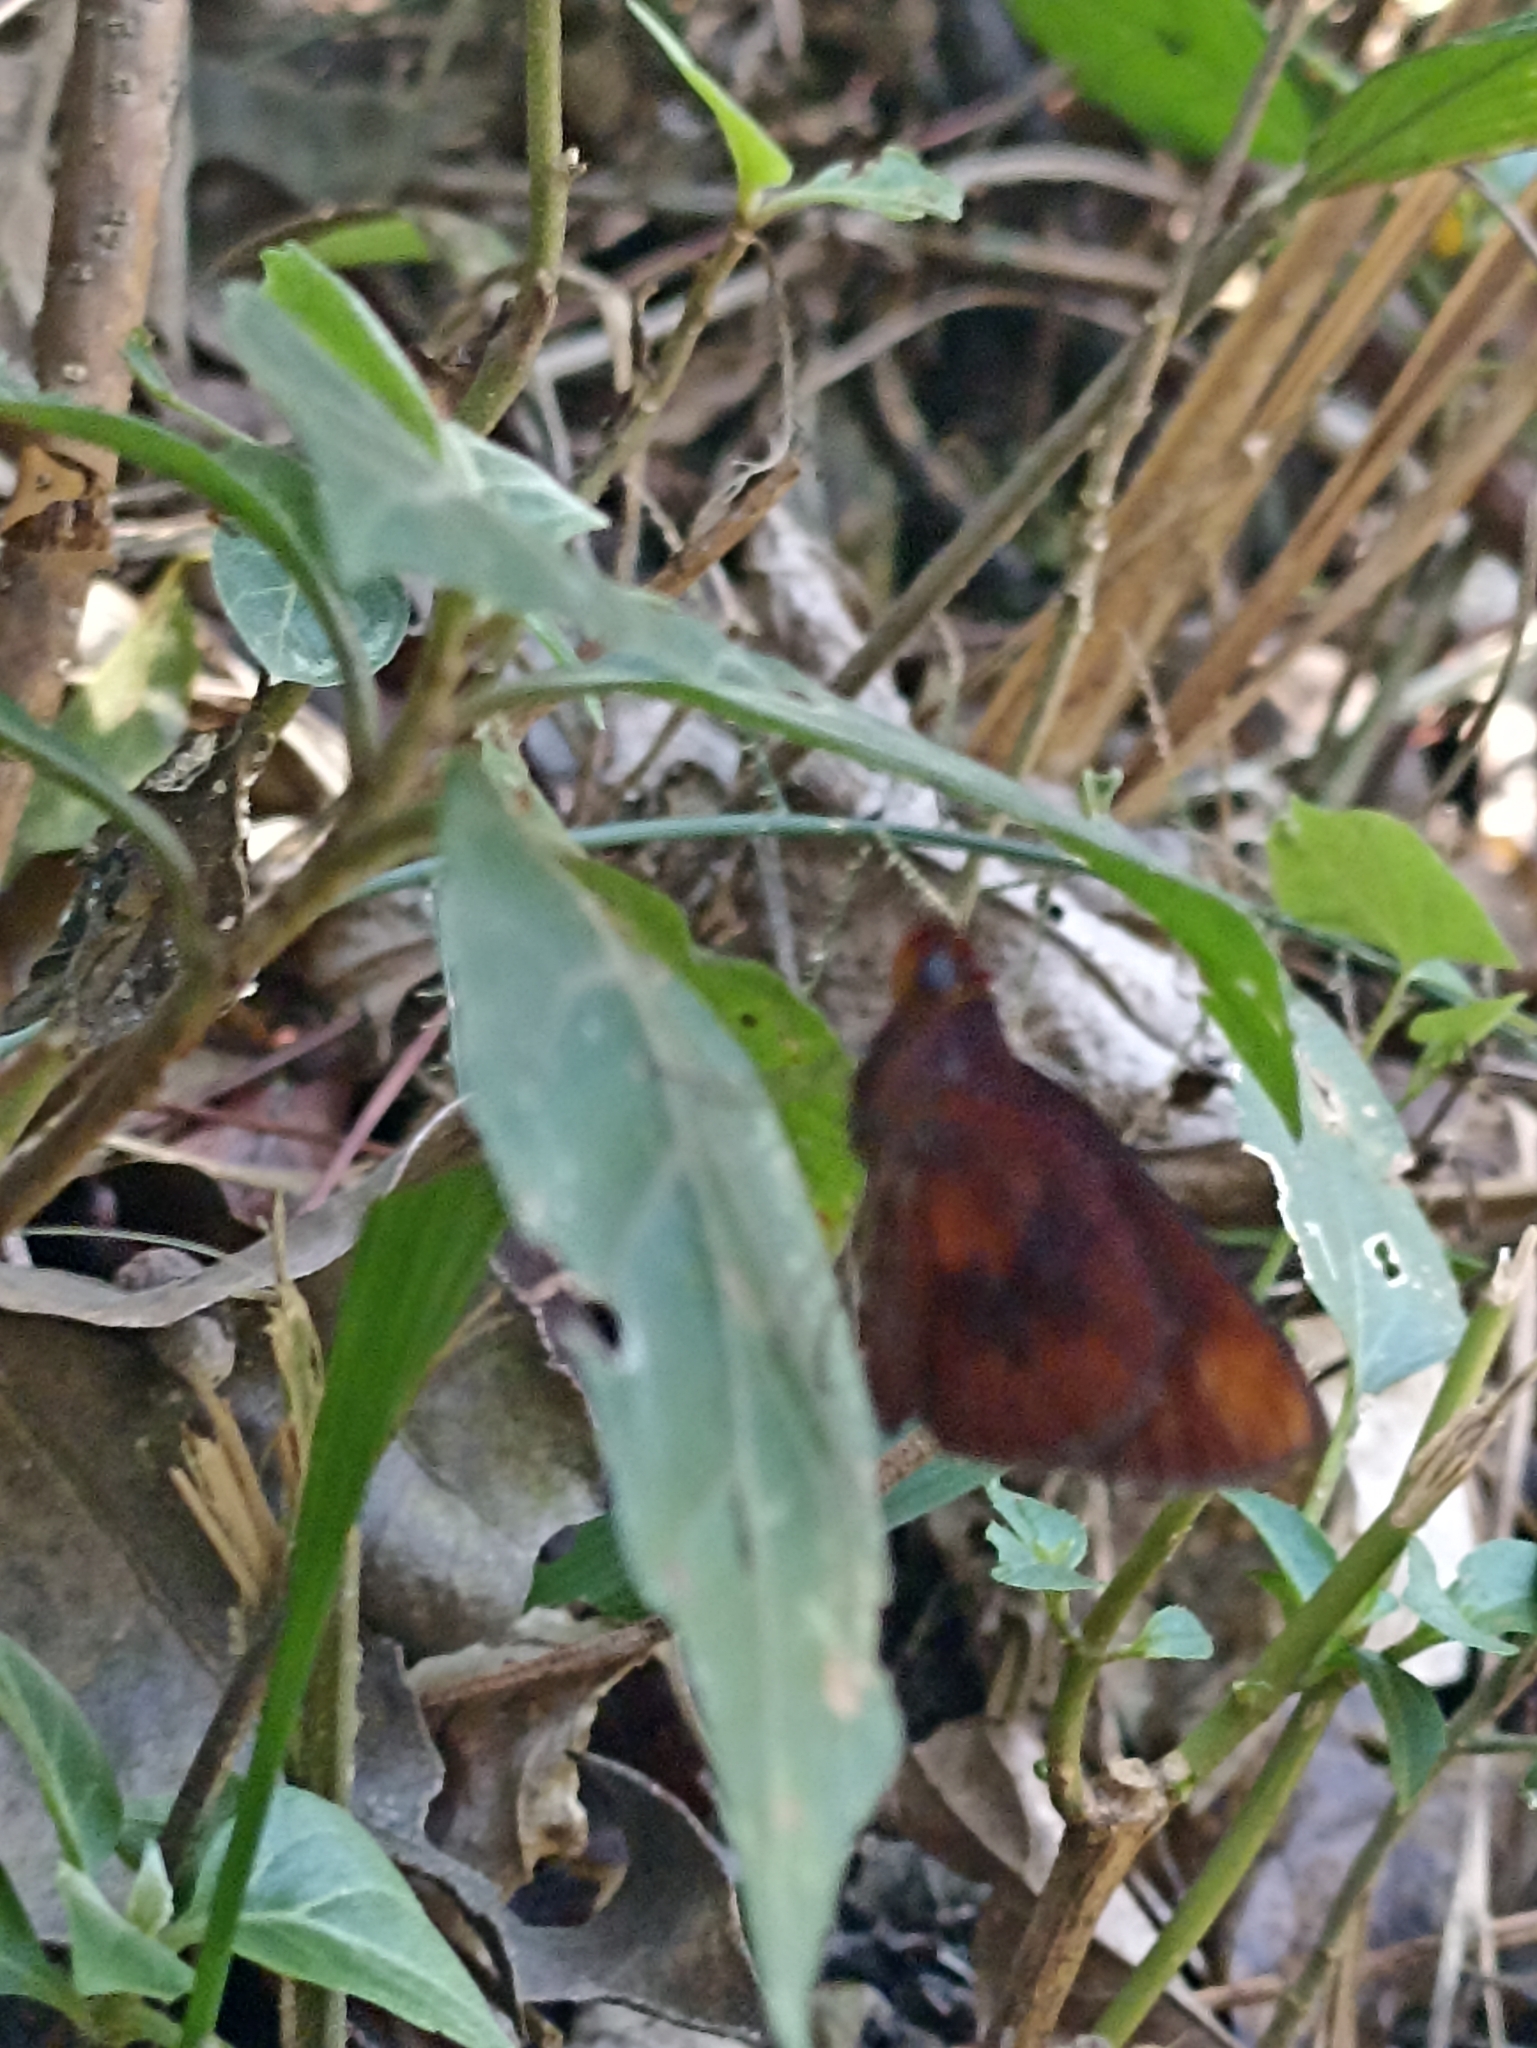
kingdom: Animalia
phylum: Arthropoda
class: Insecta
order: Lepidoptera
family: Hesperiidae
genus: Miltomiges
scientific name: Miltomiges cinnamomea
